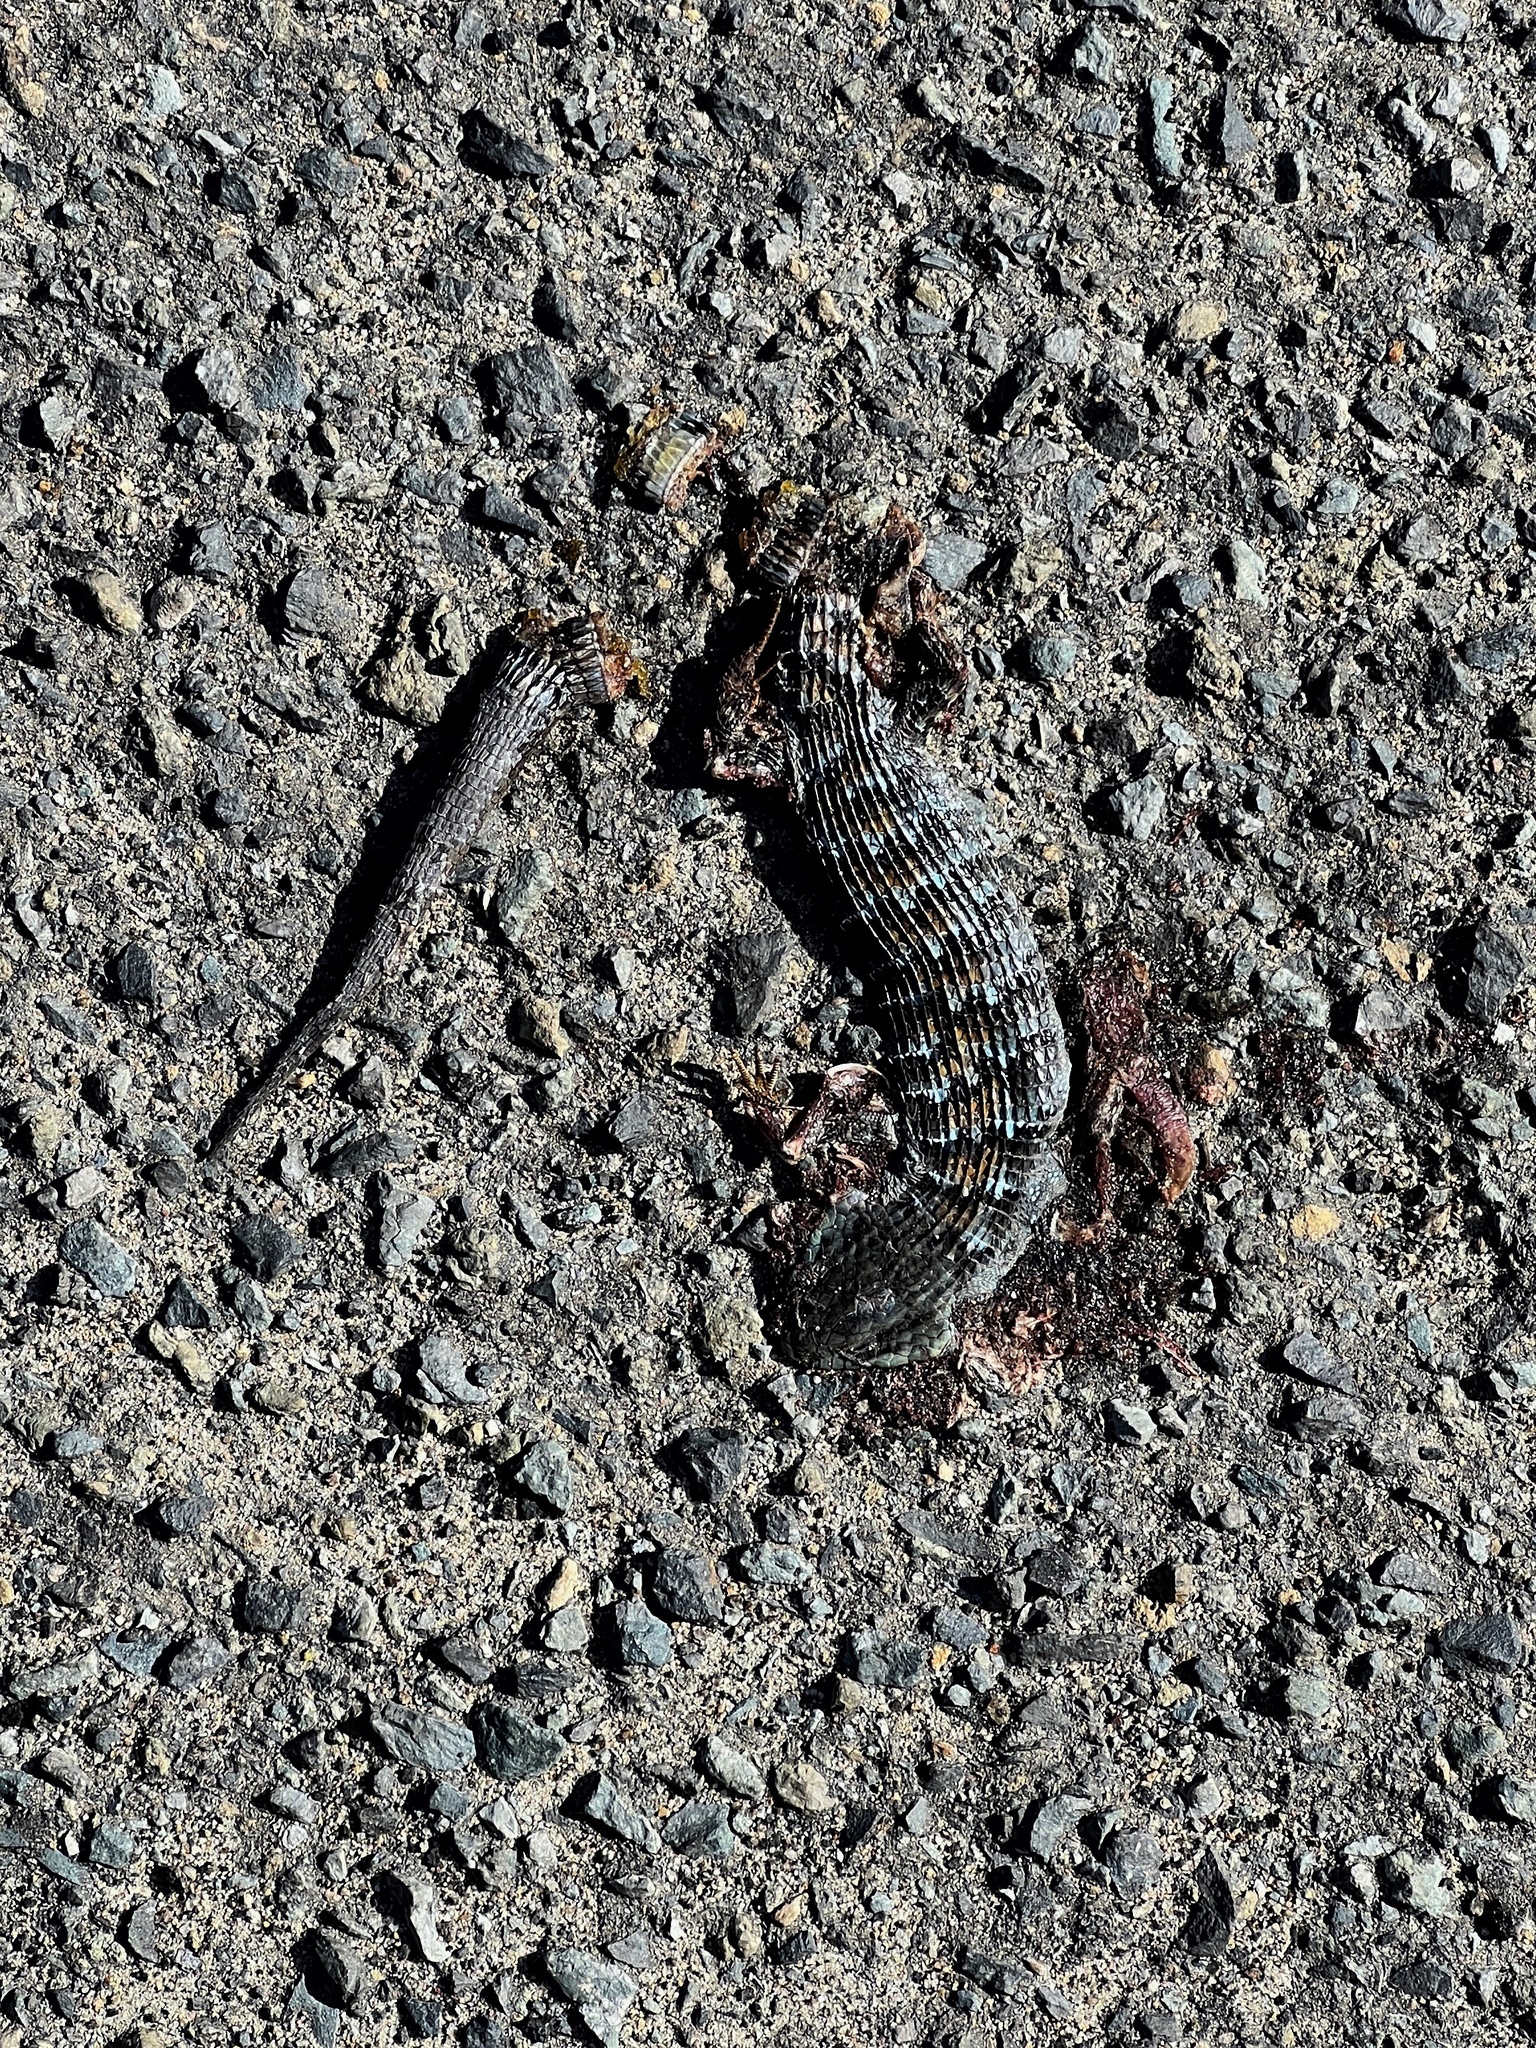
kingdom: Animalia
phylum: Chordata
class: Squamata
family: Anguidae
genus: Elgaria
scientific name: Elgaria multicarinata
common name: Southern alligator lizard
